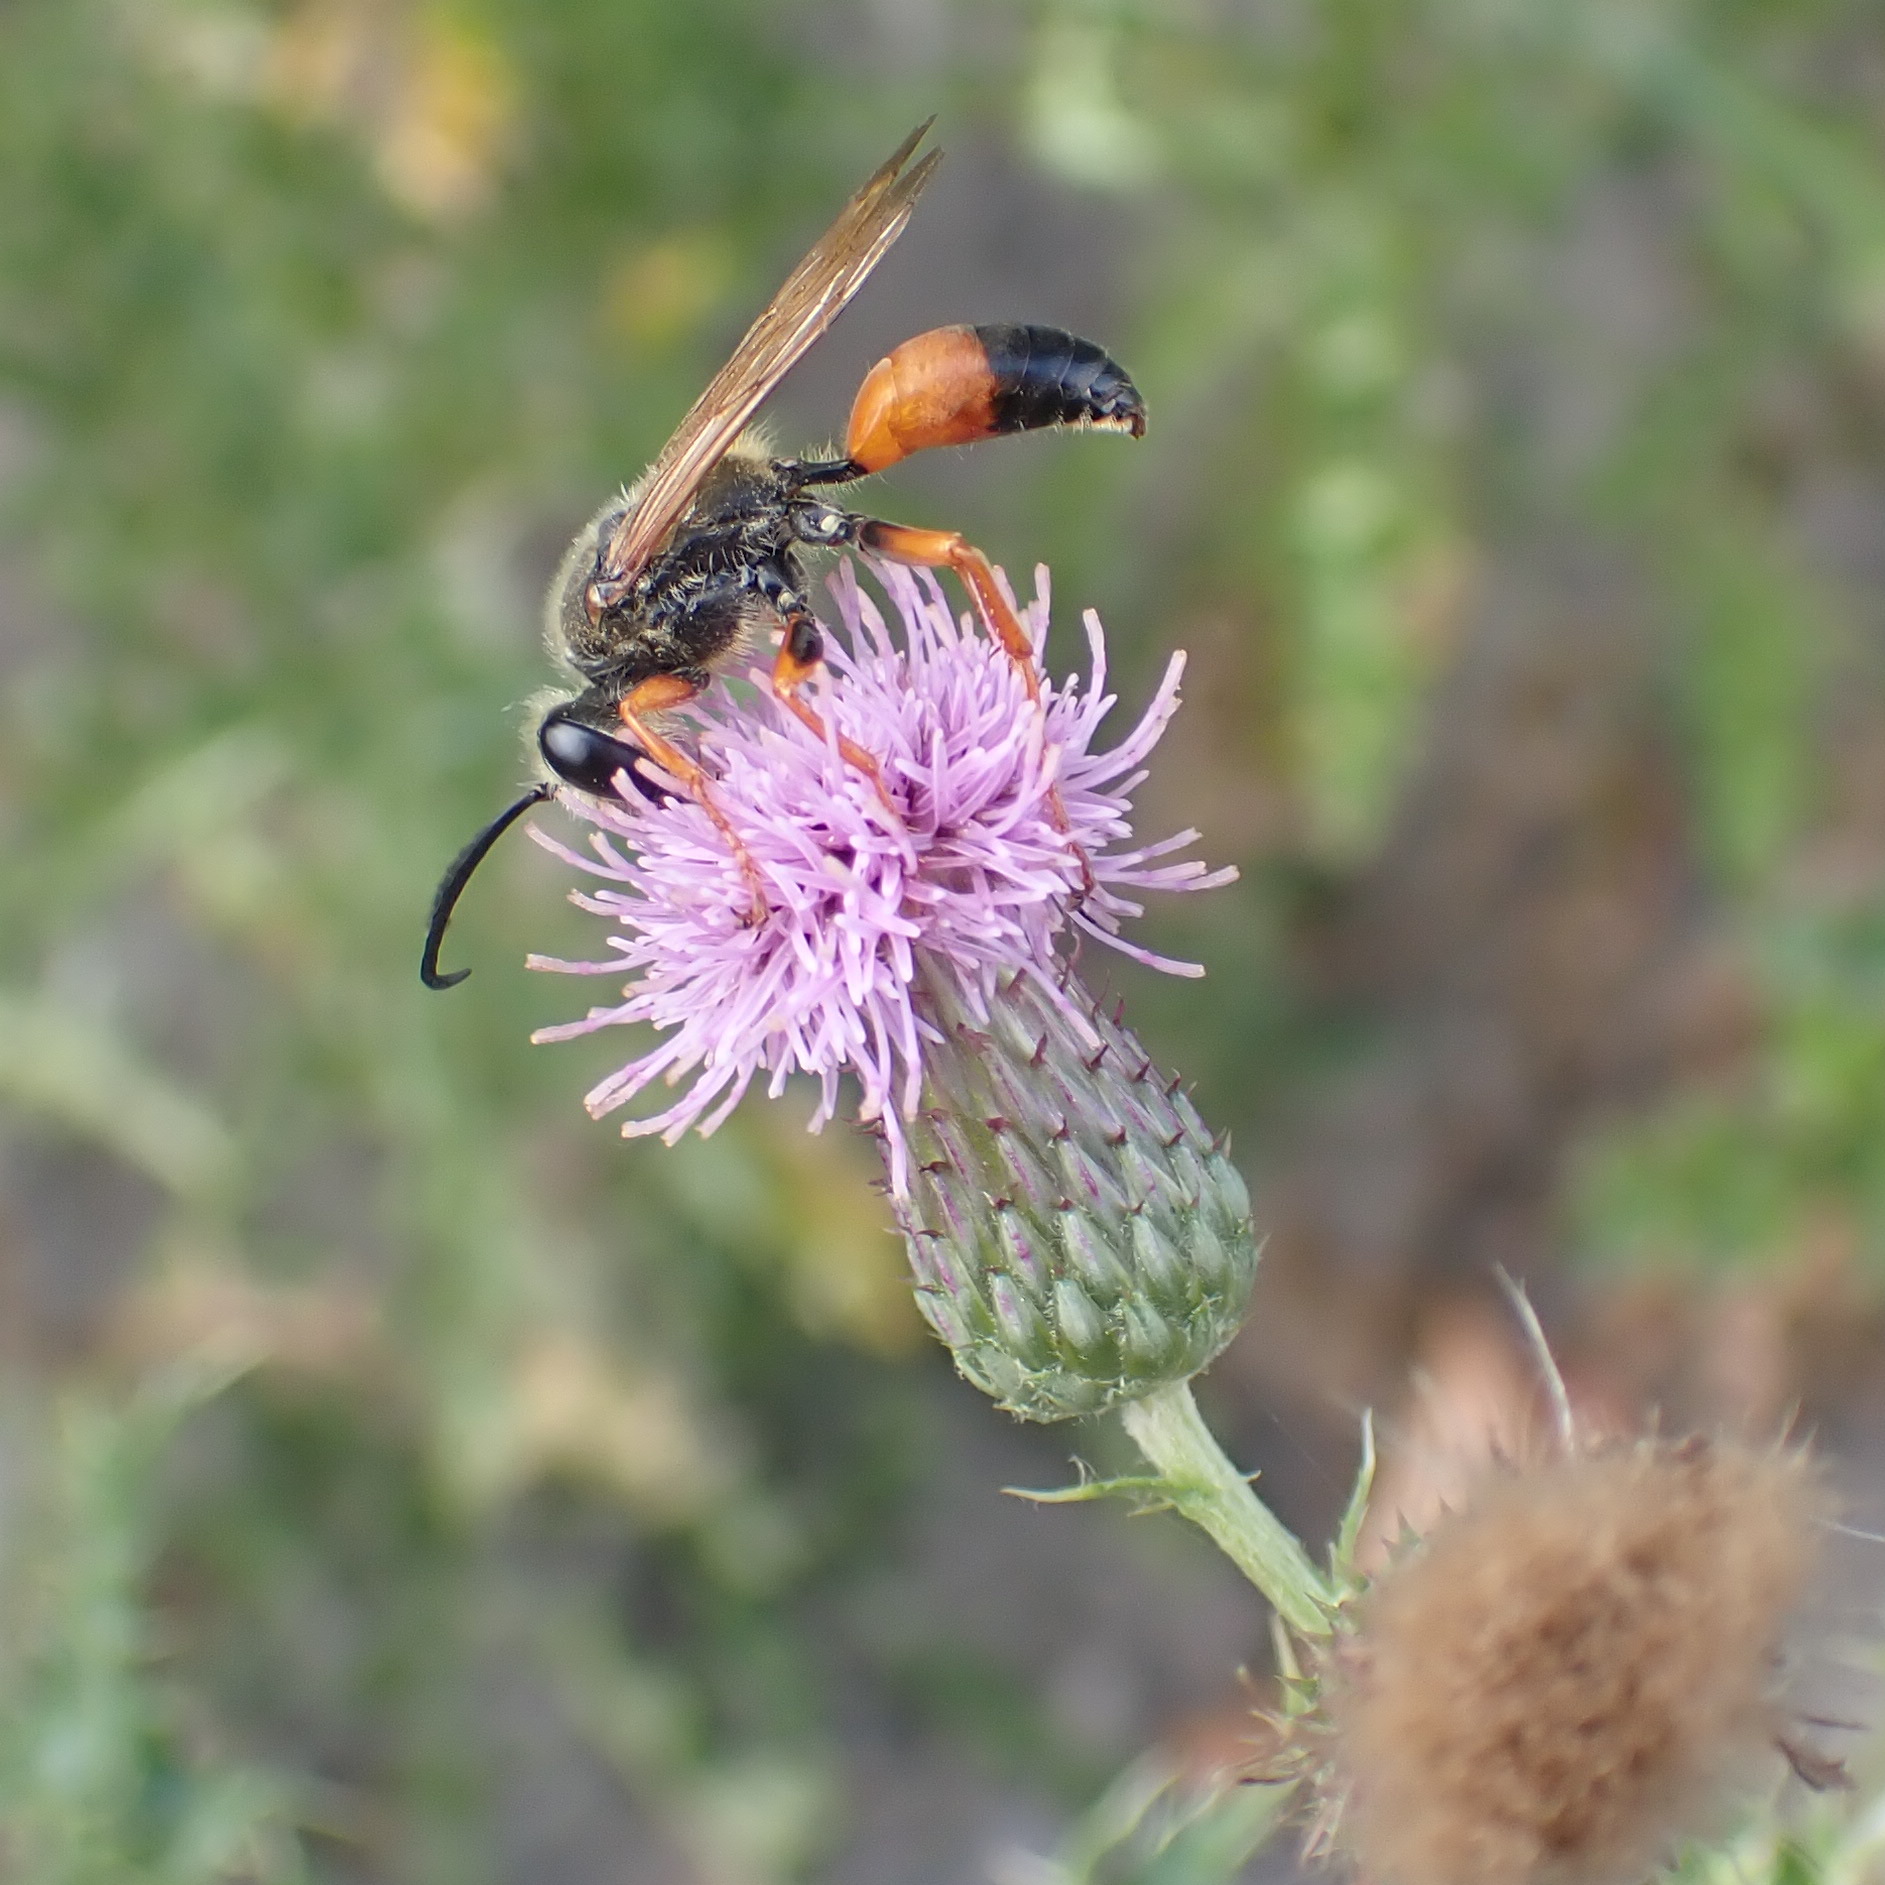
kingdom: Animalia
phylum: Arthropoda
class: Insecta
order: Hymenoptera
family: Sphecidae
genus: Sphex
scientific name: Sphex ichneumoneus
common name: Great golden digger wasp
